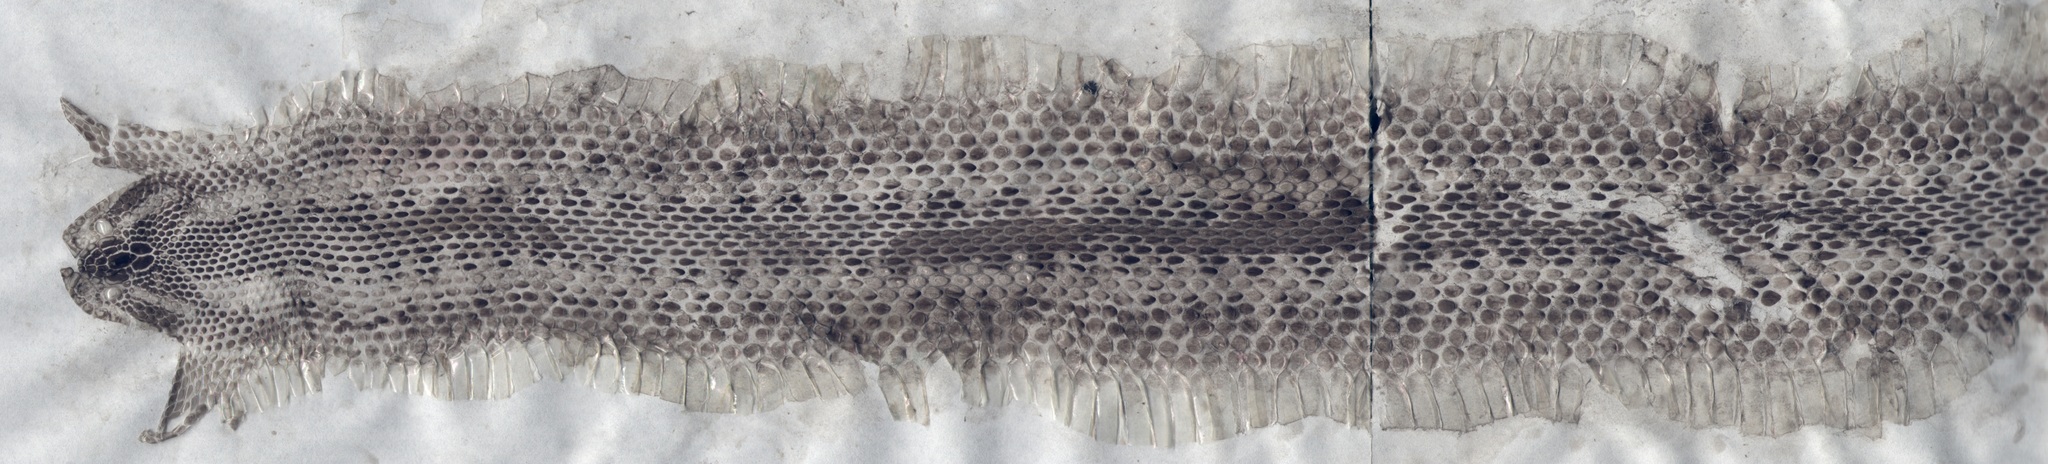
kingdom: Animalia
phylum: Chordata
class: Squamata
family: Viperidae
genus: Vipera
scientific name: Vipera orlovi
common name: Orlov's viper
